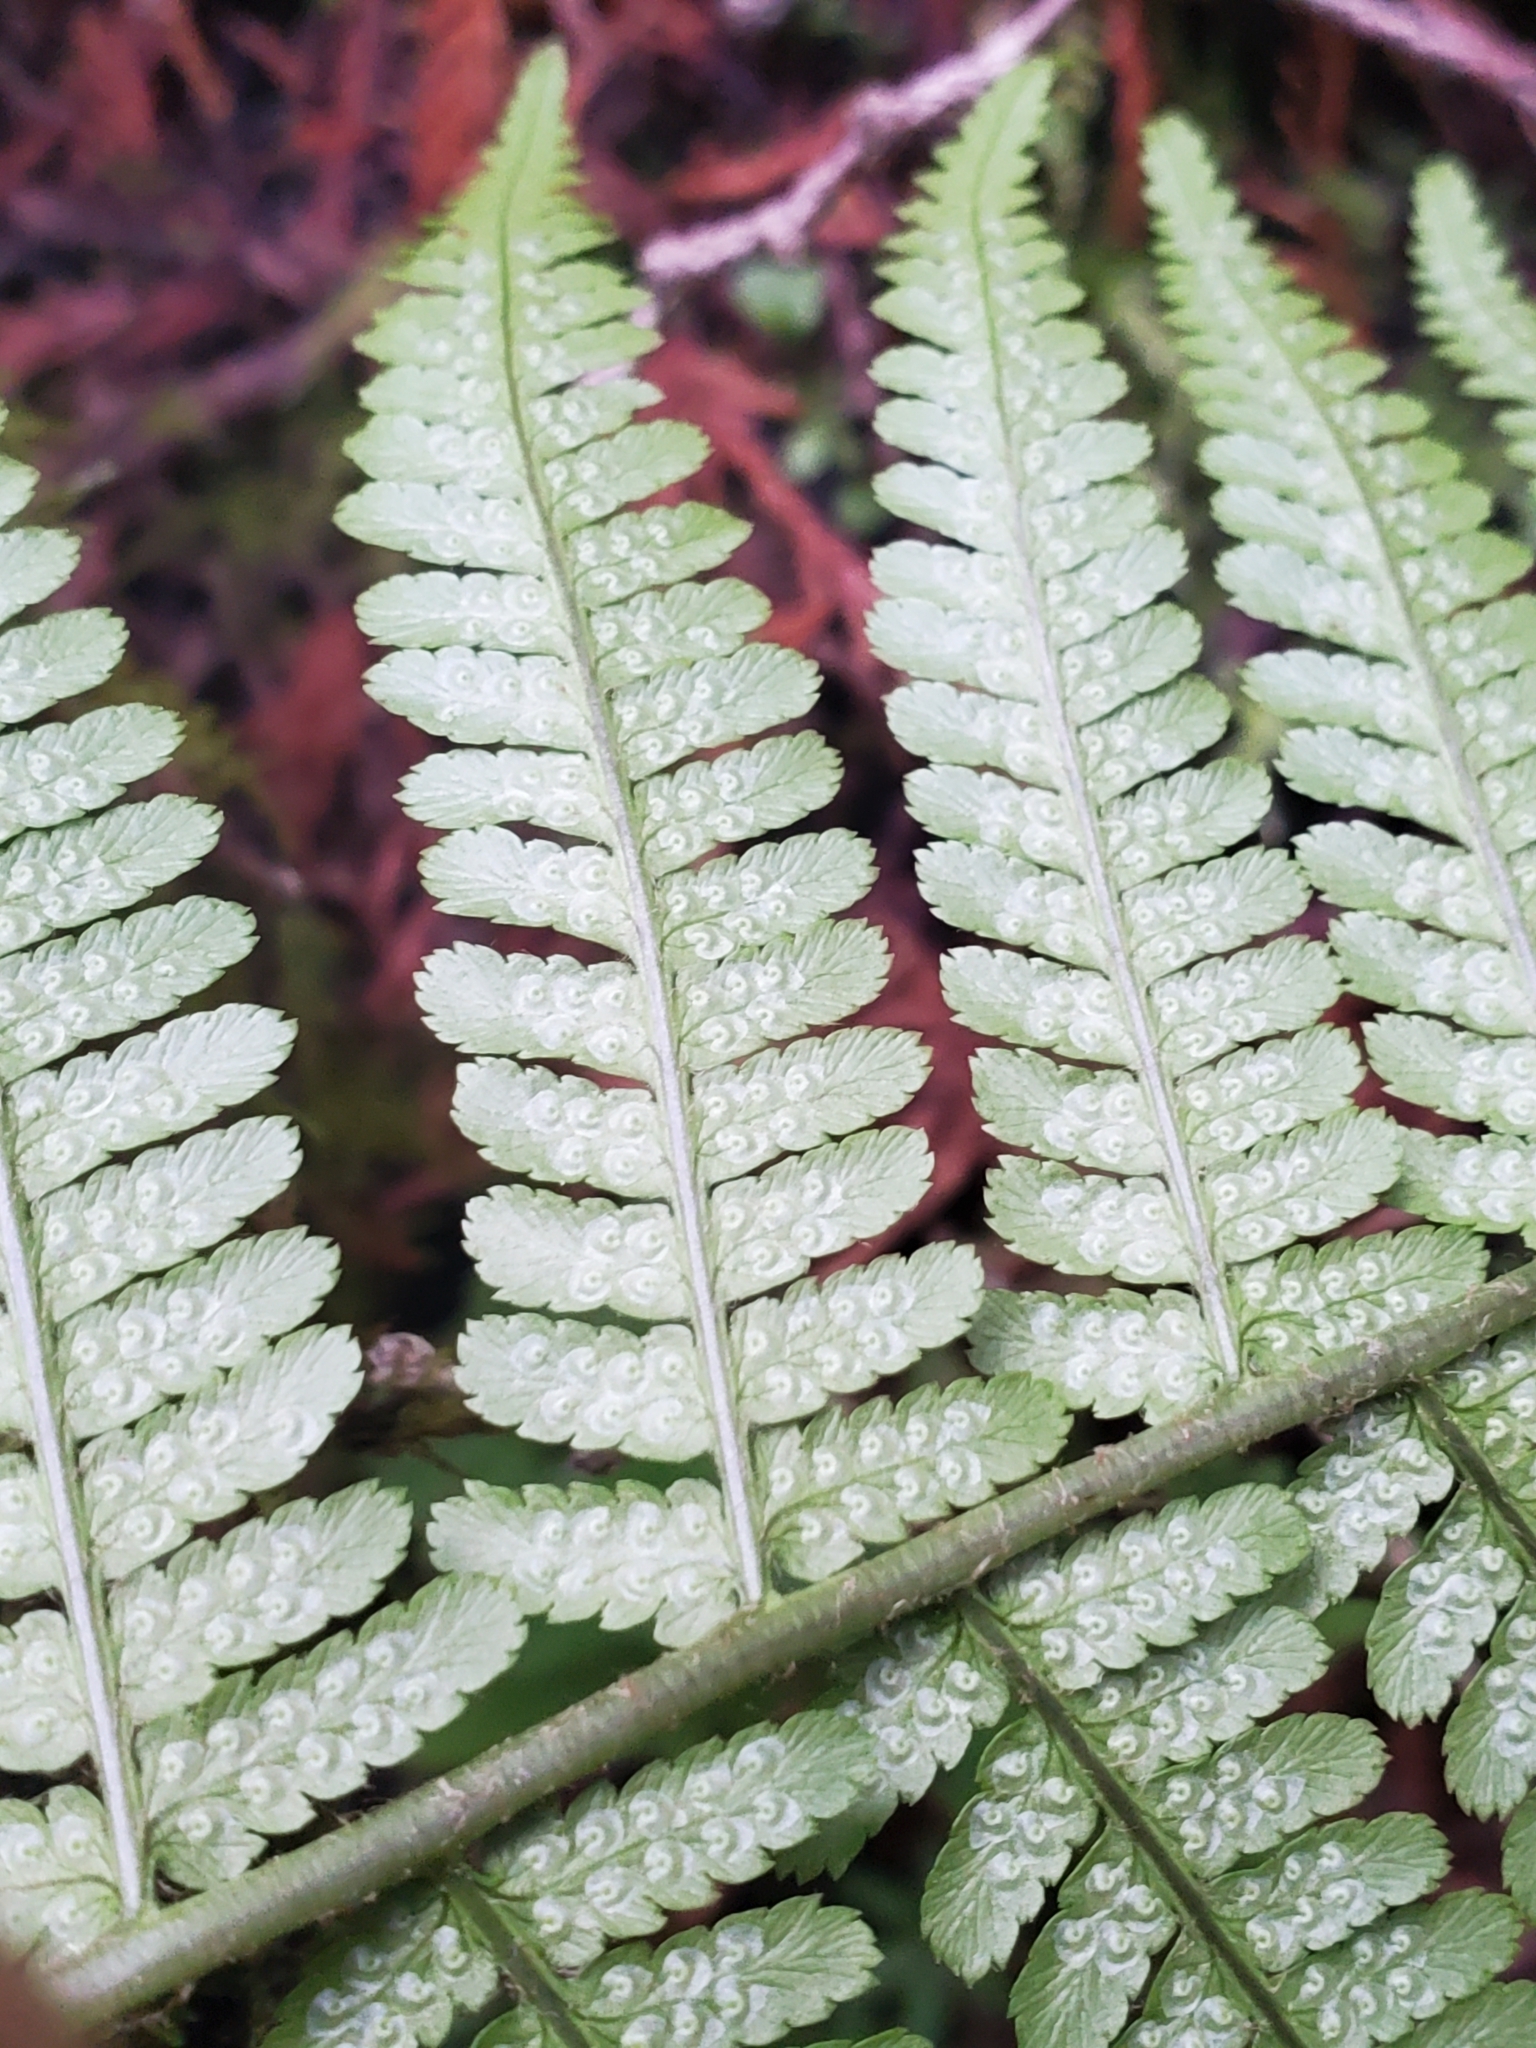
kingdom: Plantae
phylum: Tracheophyta
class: Polypodiopsida
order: Polypodiales
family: Dryopteridaceae
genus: Dryopteris
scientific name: Dryopteris filix-mas
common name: Male fern
